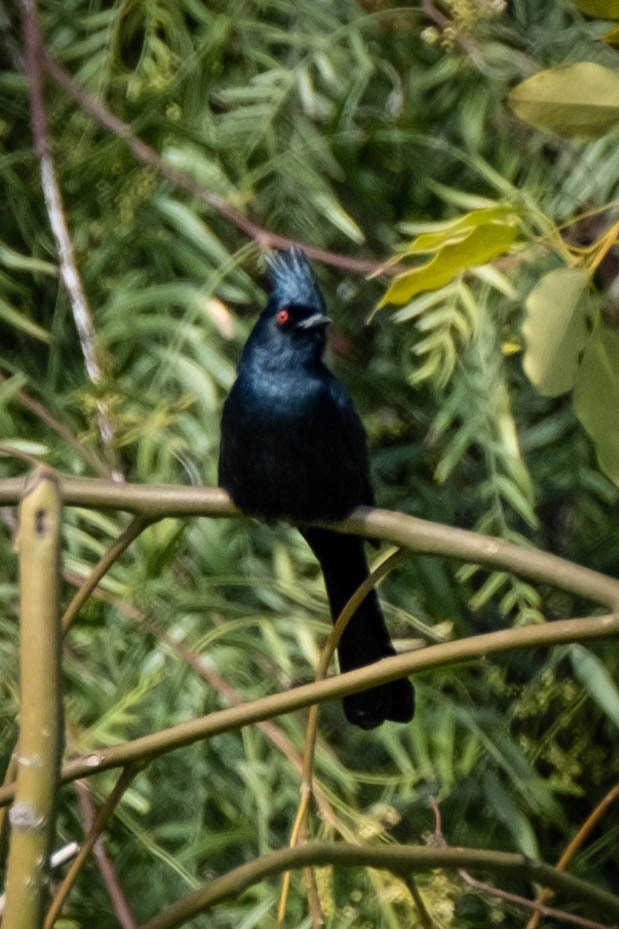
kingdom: Animalia
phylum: Chordata
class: Aves
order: Passeriformes
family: Ptilogonatidae
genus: Phainopepla
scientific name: Phainopepla nitens
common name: Phainopepla
